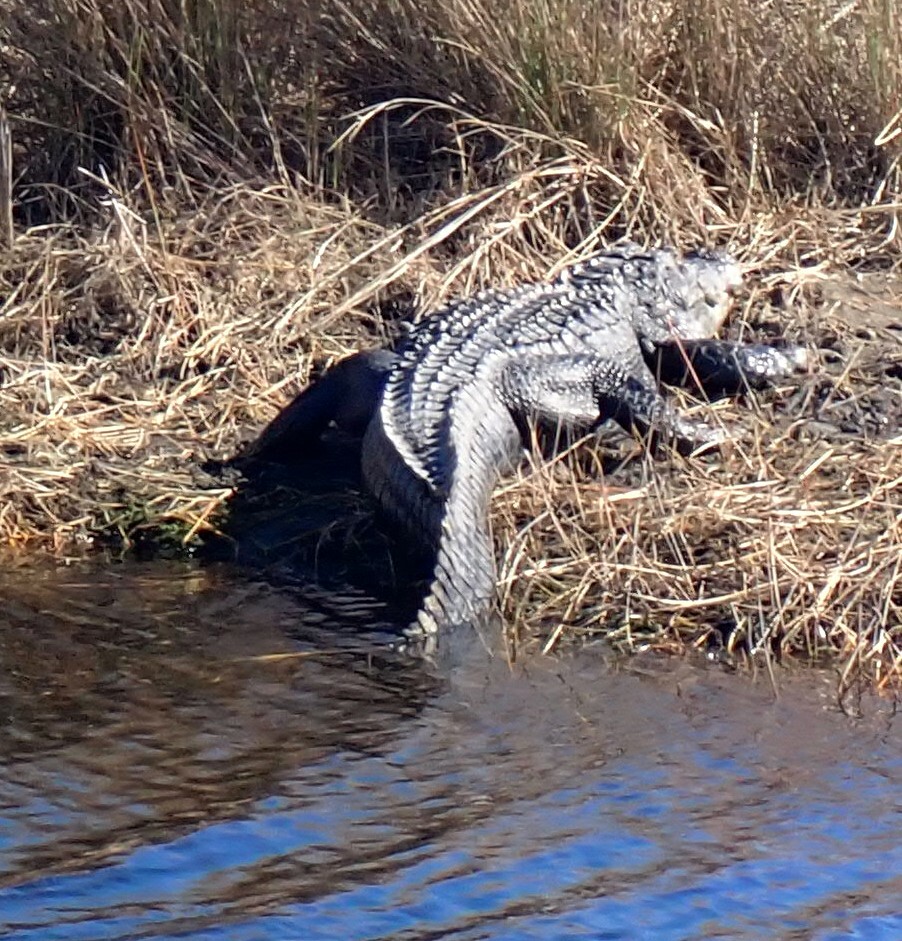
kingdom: Animalia
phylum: Chordata
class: Crocodylia
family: Alligatoridae
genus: Alligator
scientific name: Alligator mississippiensis
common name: American alligator
